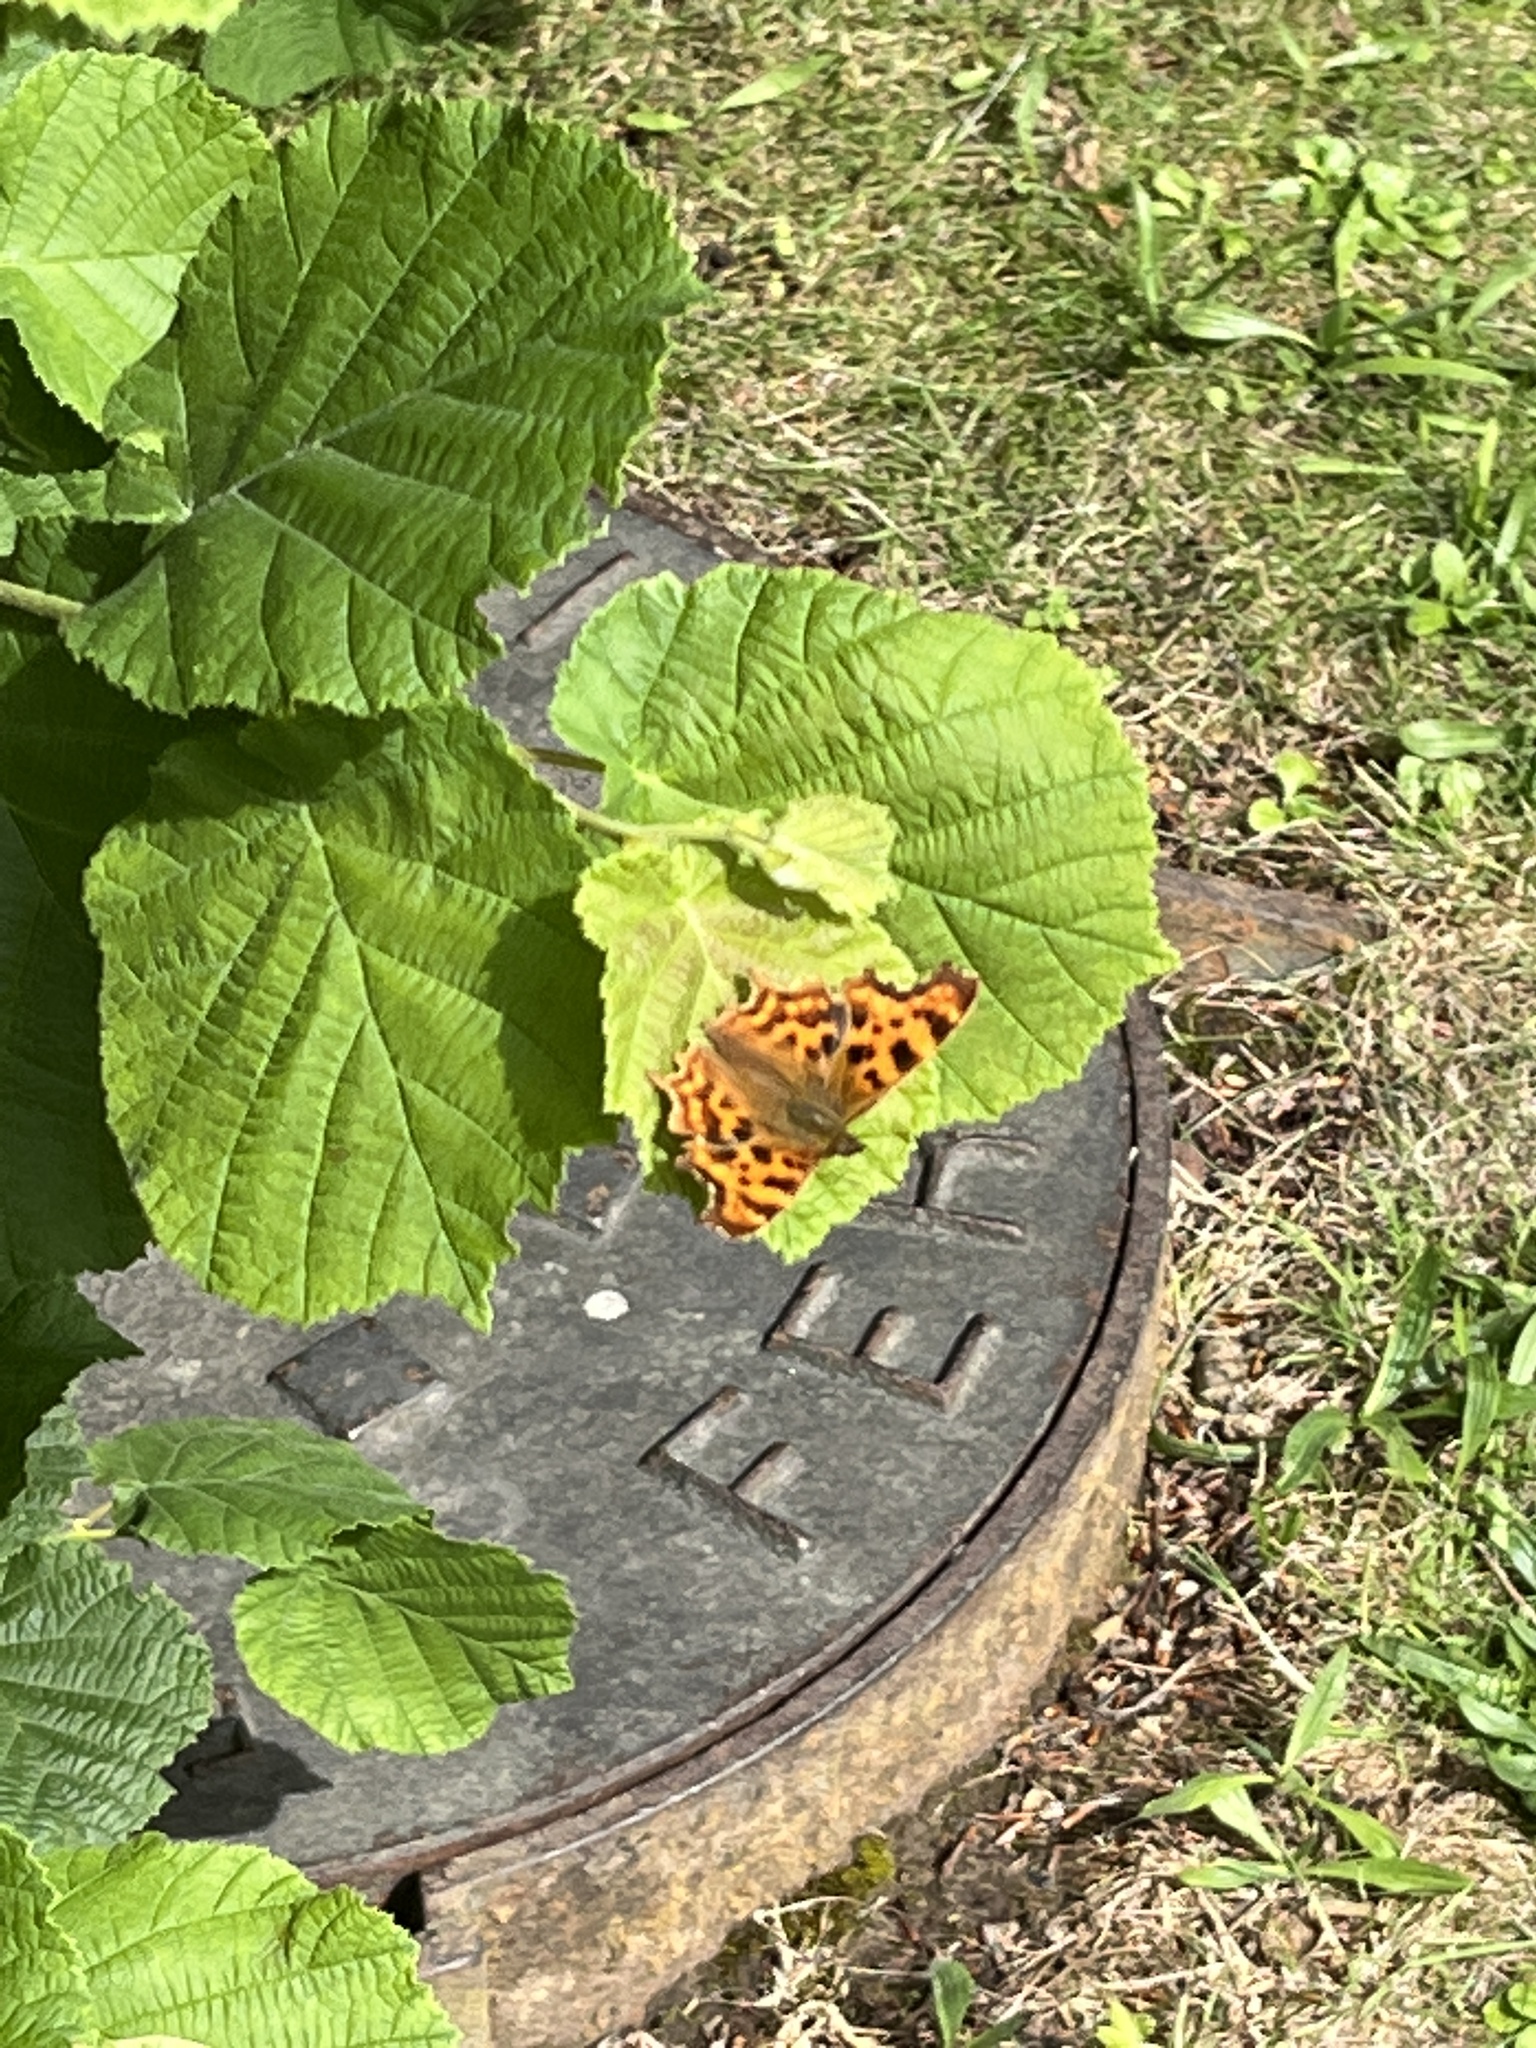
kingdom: Animalia
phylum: Arthropoda
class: Insecta
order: Lepidoptera
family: Nymphalidae
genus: Polygonia
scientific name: Polygonia c-album
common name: Comma
